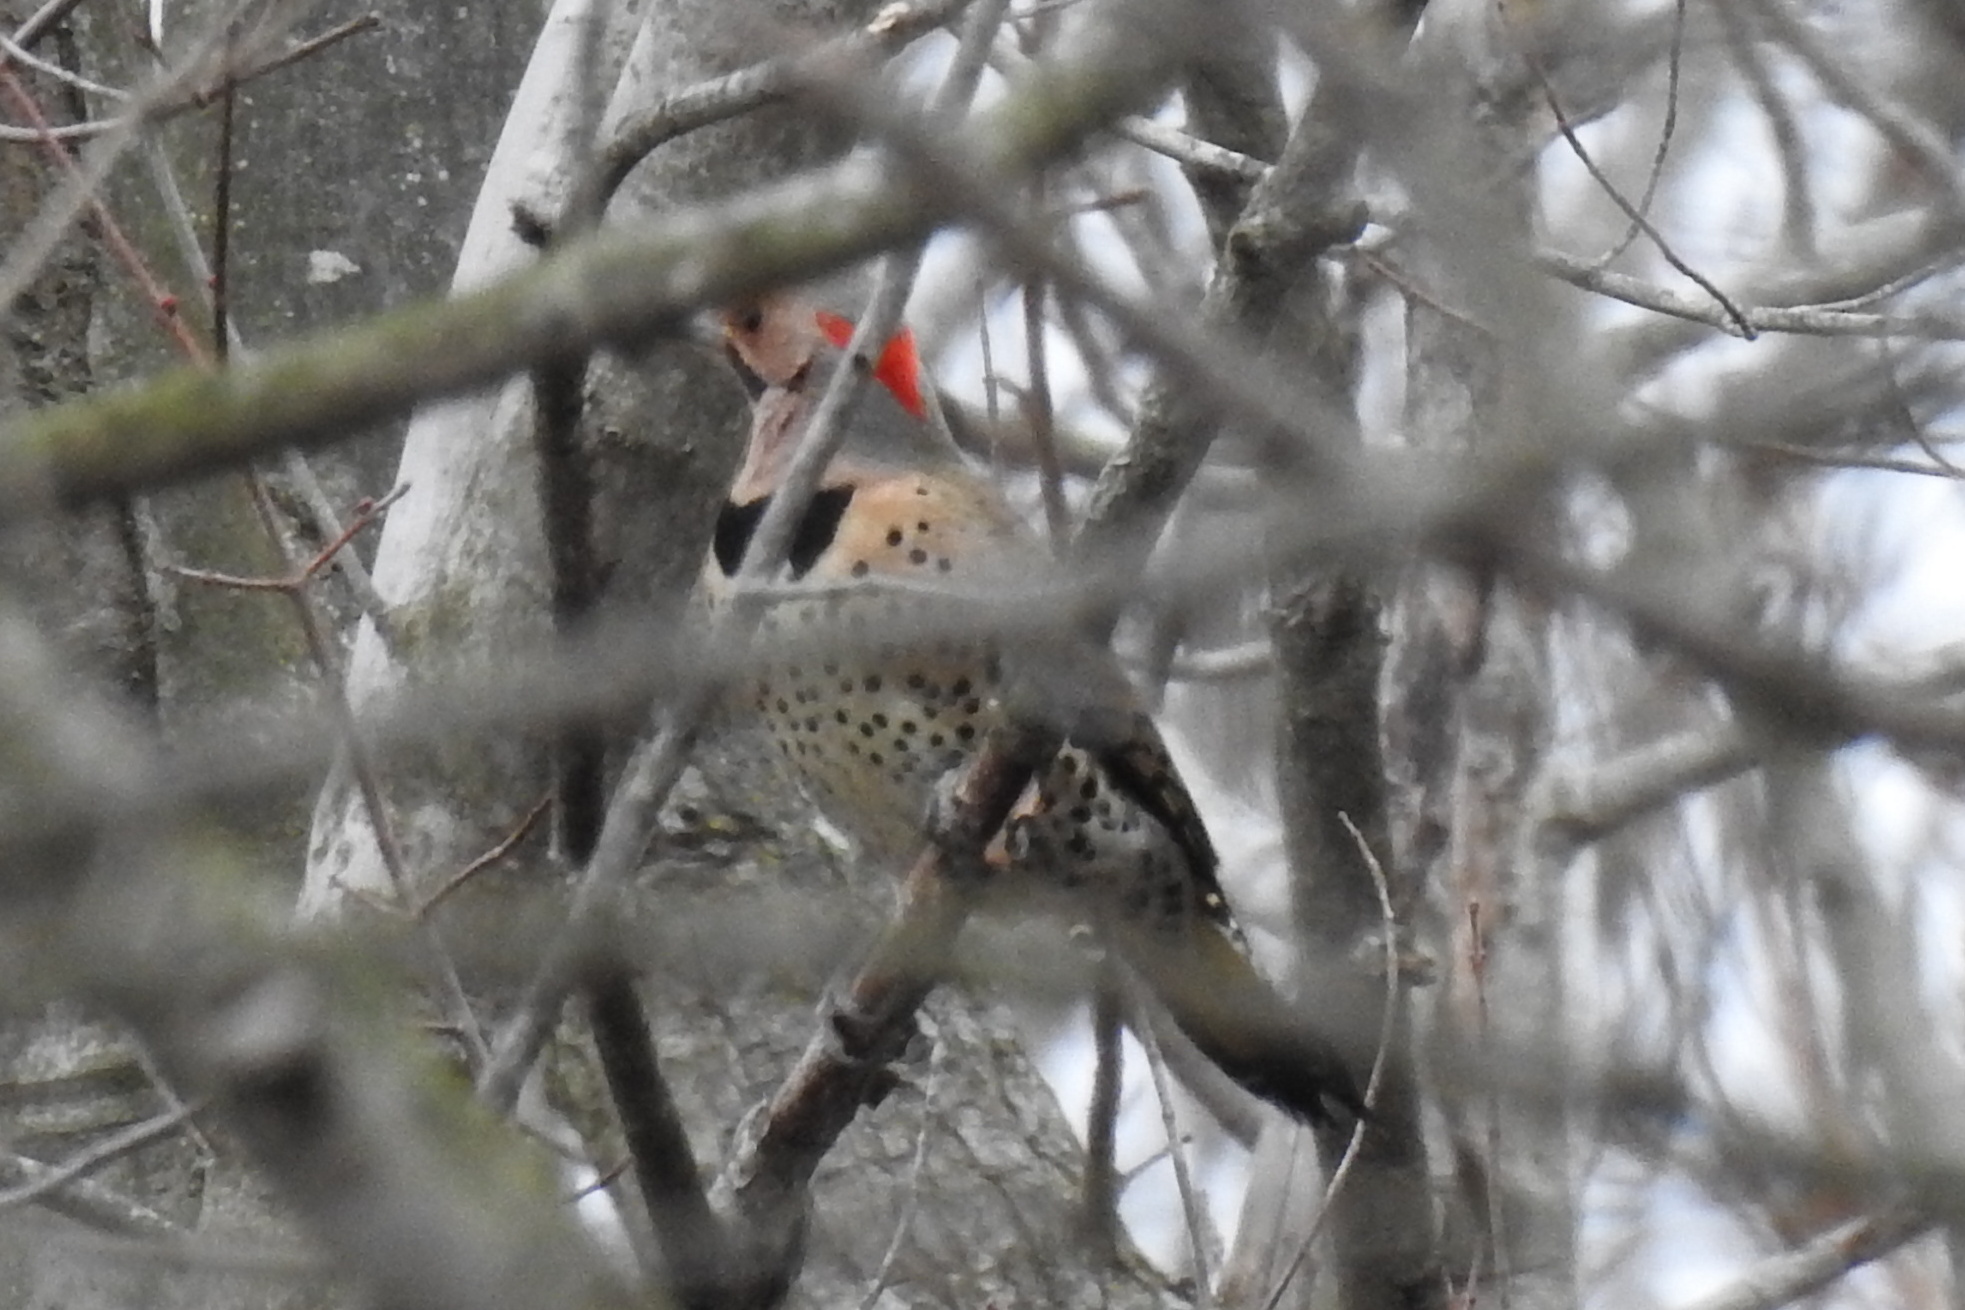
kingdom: Animalia
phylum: Chordata
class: Aves
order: Piciformes
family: Picidae
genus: Colaptes
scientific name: Colaptes auratus
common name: Northern flicker
